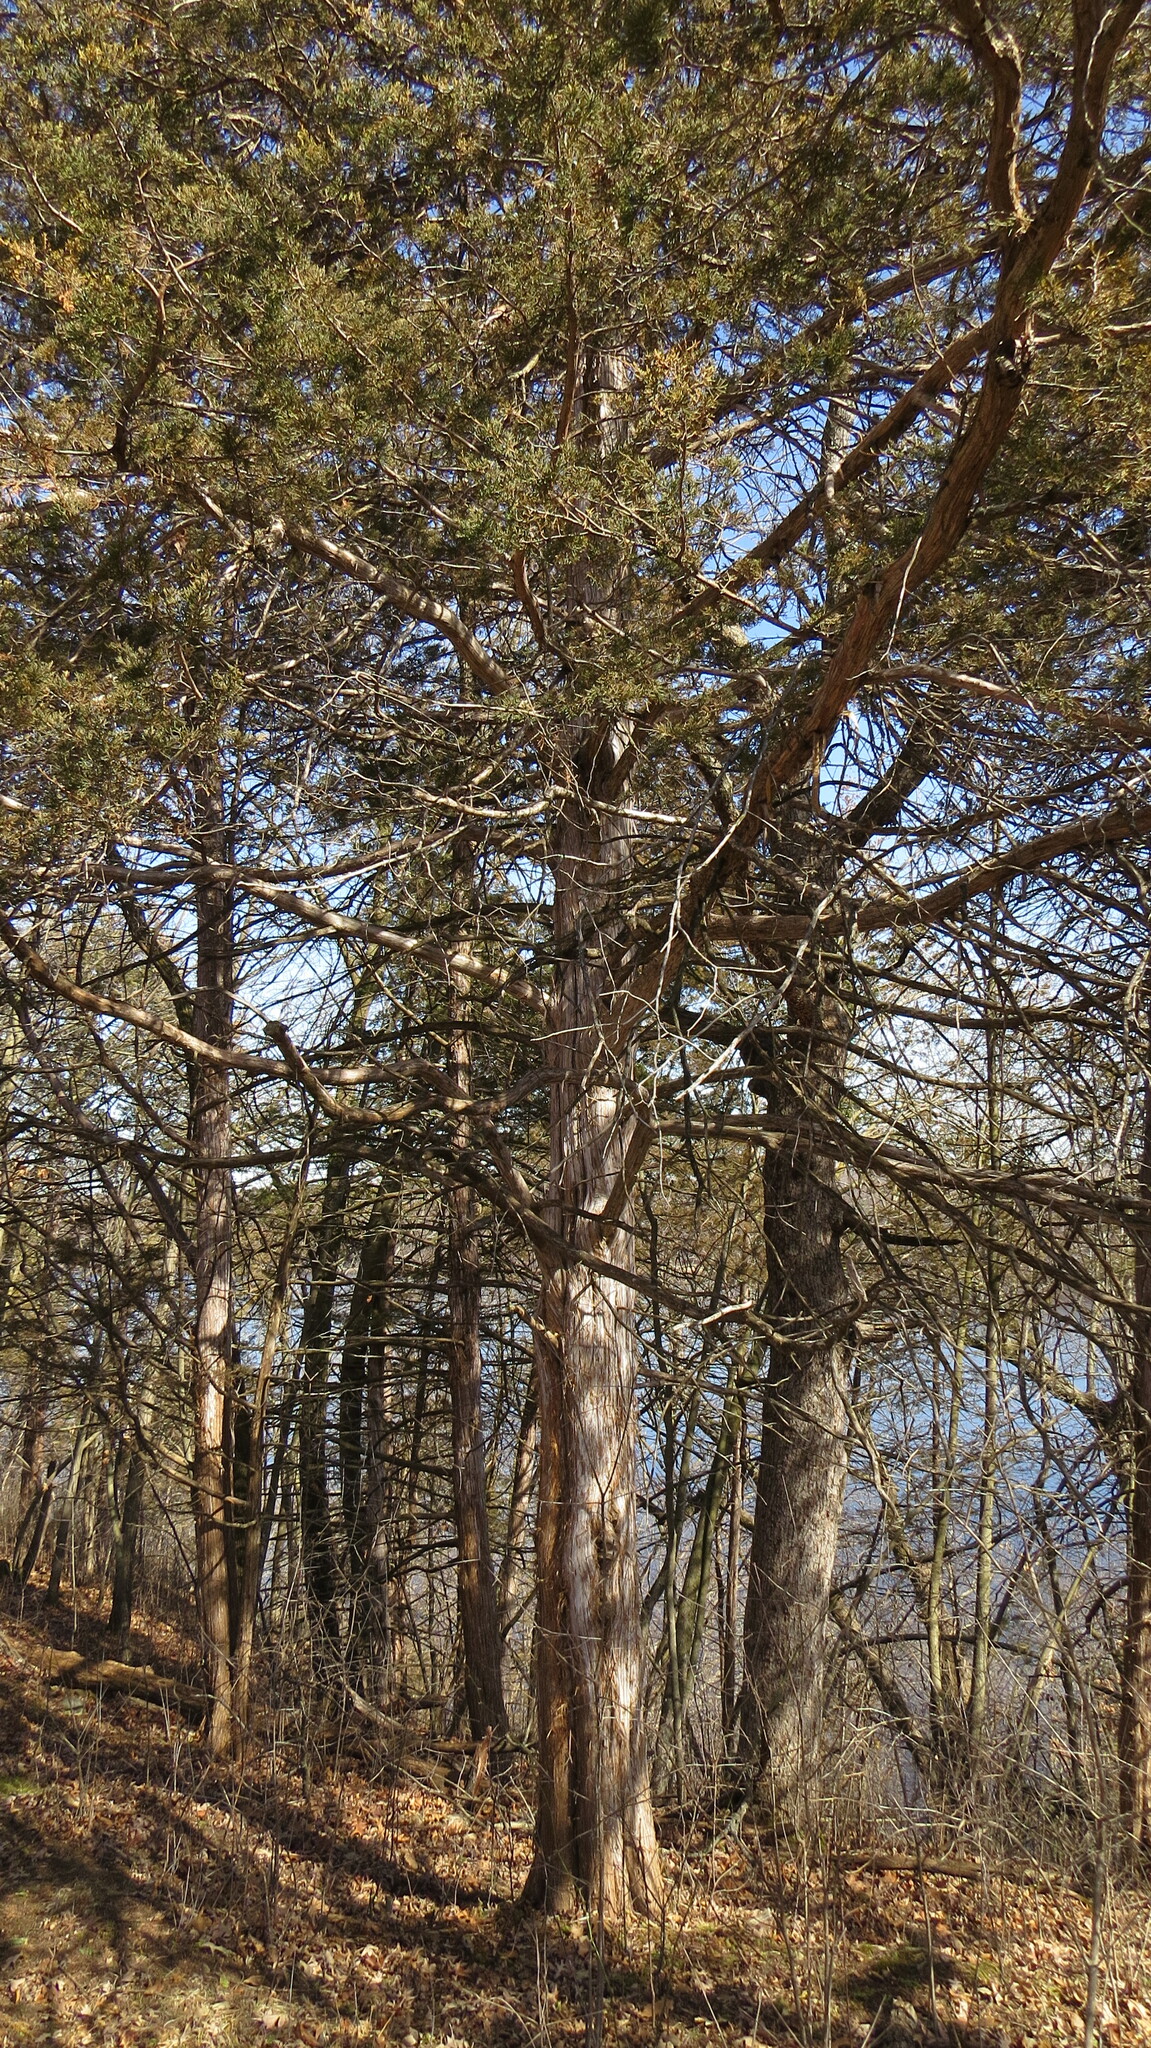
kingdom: Plantae
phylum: Tracheophyta
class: Pinopsida
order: Pinales
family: Cupressaceae
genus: Juniperus
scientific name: Juniperus virginiana
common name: Red juniper
